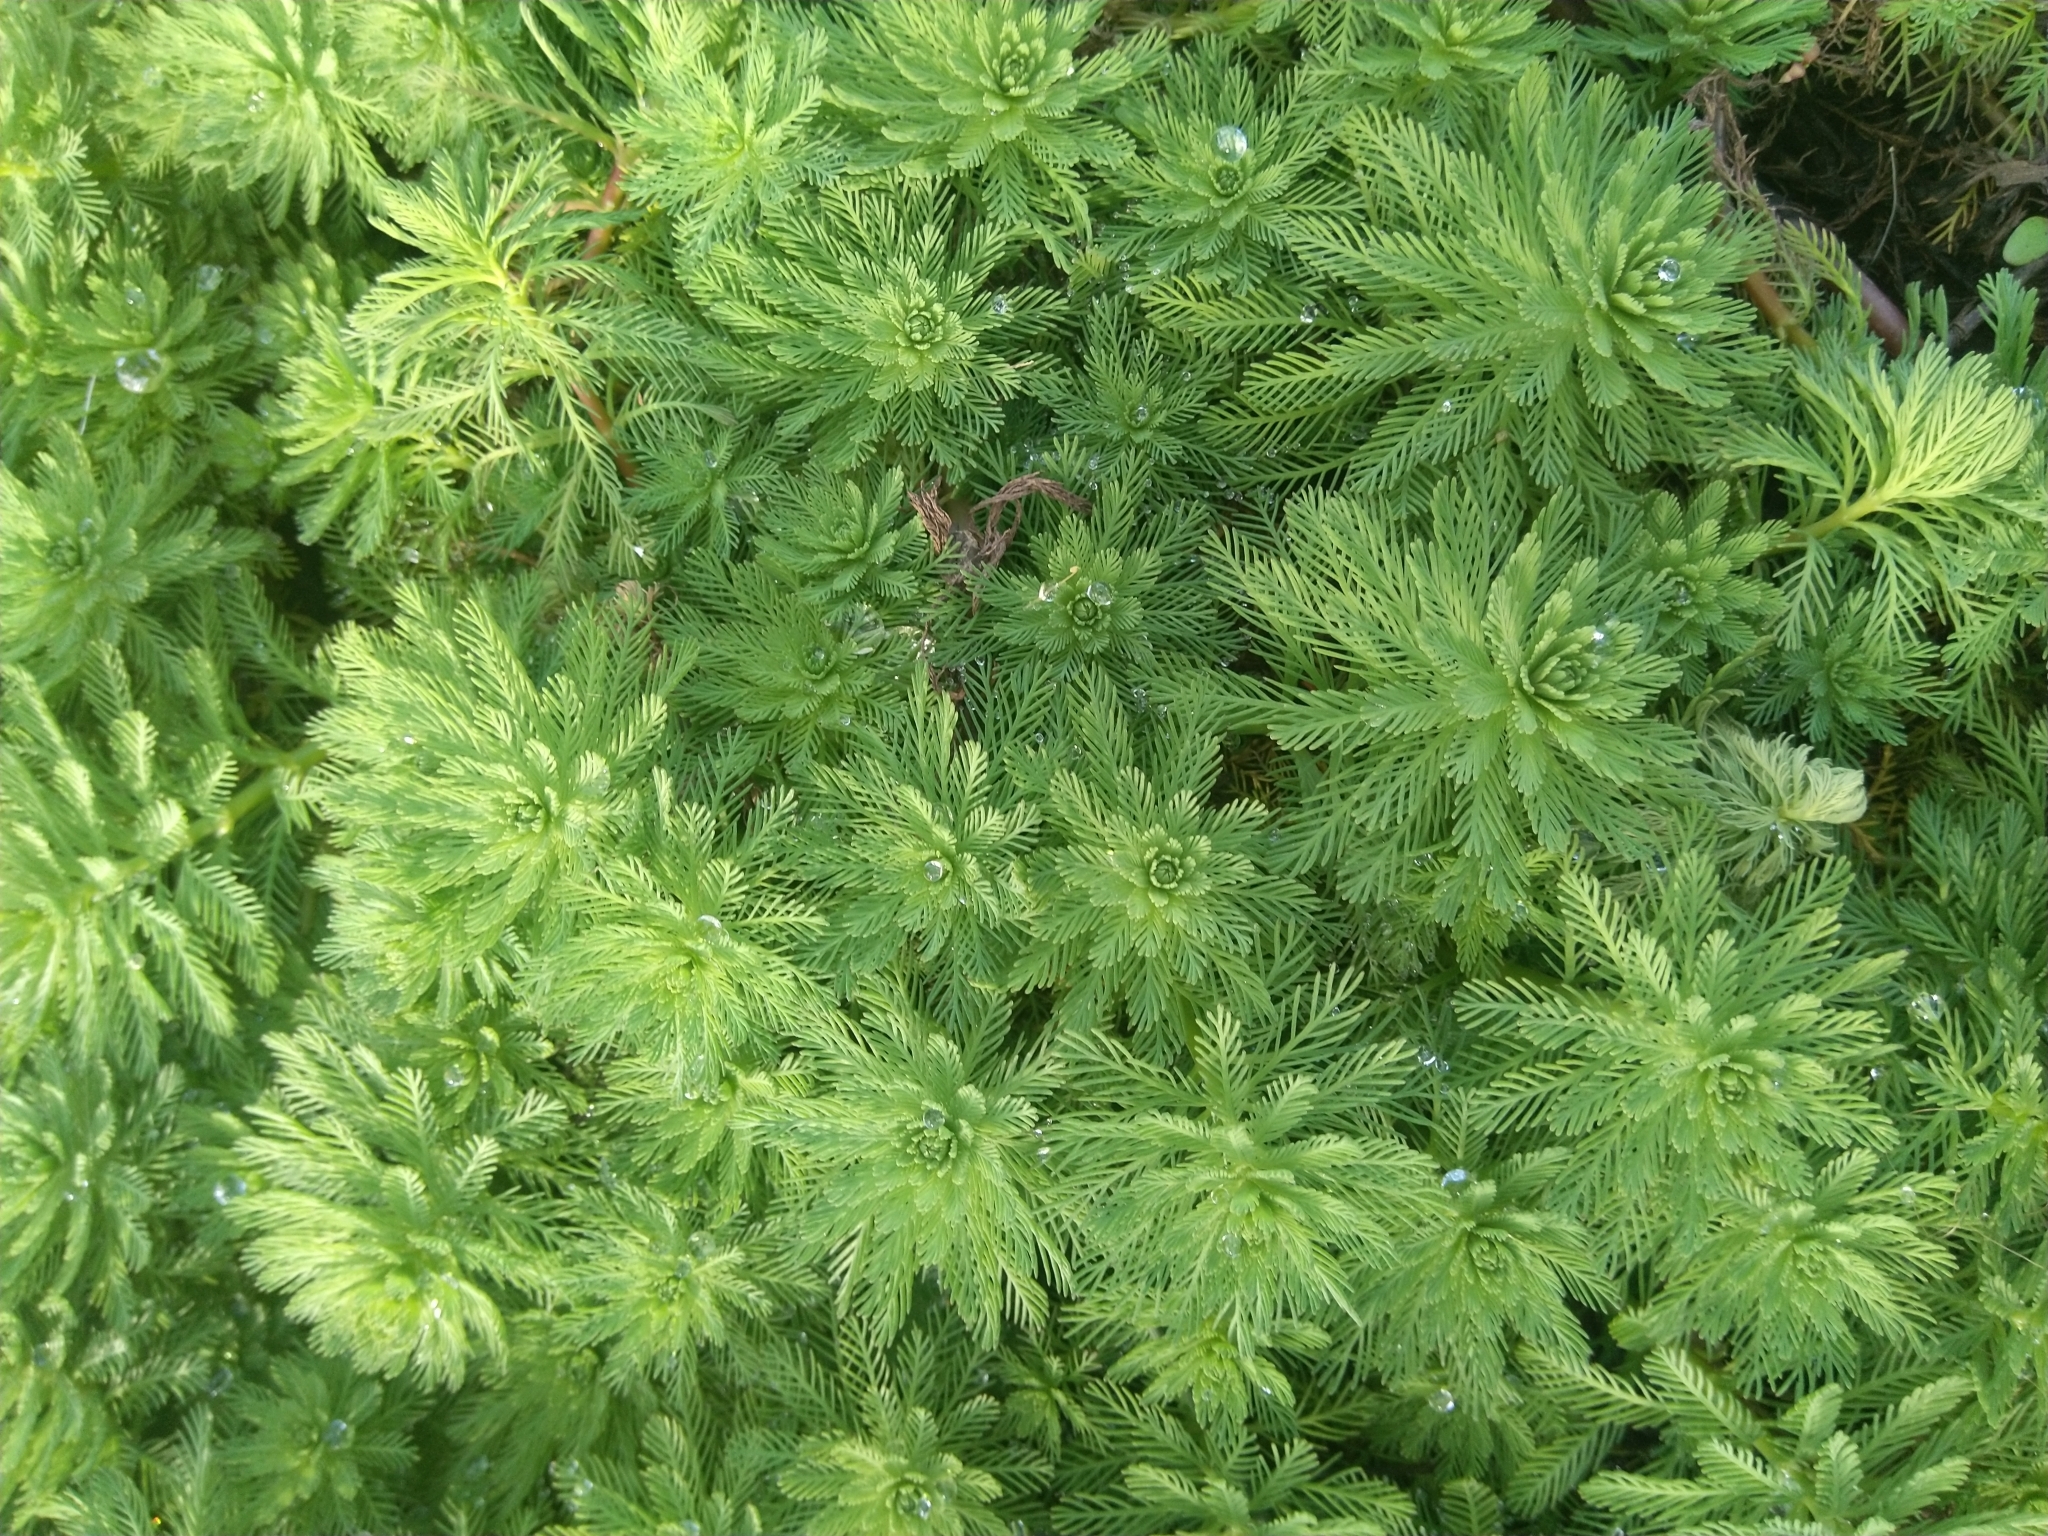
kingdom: Plantae
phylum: Tracheophyta
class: Magnoliopsida
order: Saxifragales
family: Haloragaceae
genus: Myriophyllum
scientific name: Myriophyllum aquaticum
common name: Parrot's feather
